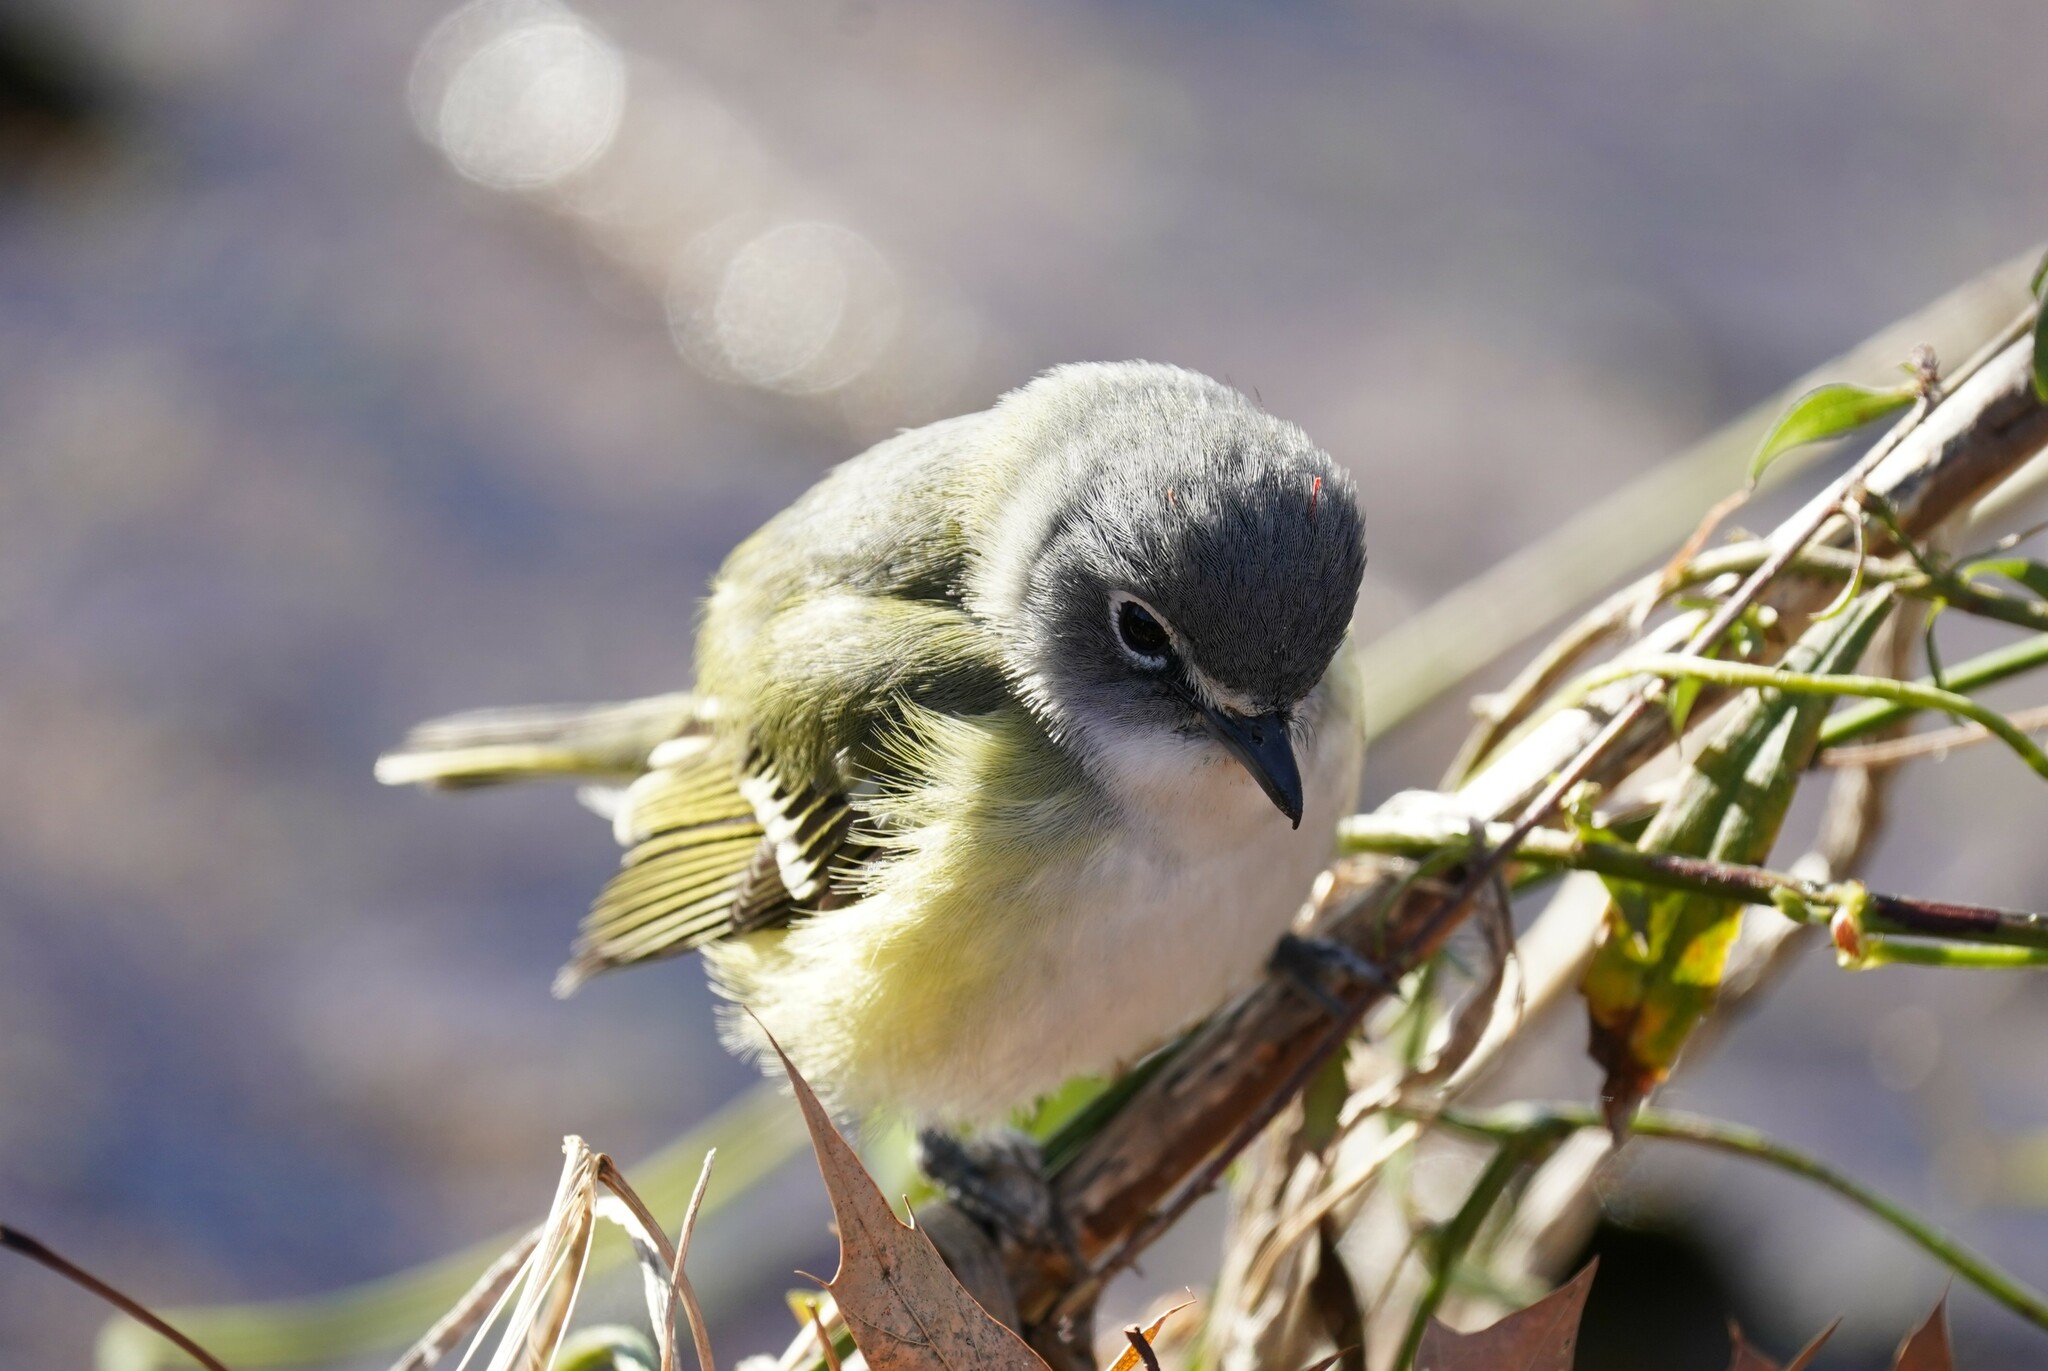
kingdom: Animalia
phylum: Chordata
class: Aves
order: Passeriformes
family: Vireonidae
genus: Vireo
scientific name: Vireo solitarius
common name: Blue-headed vireo
